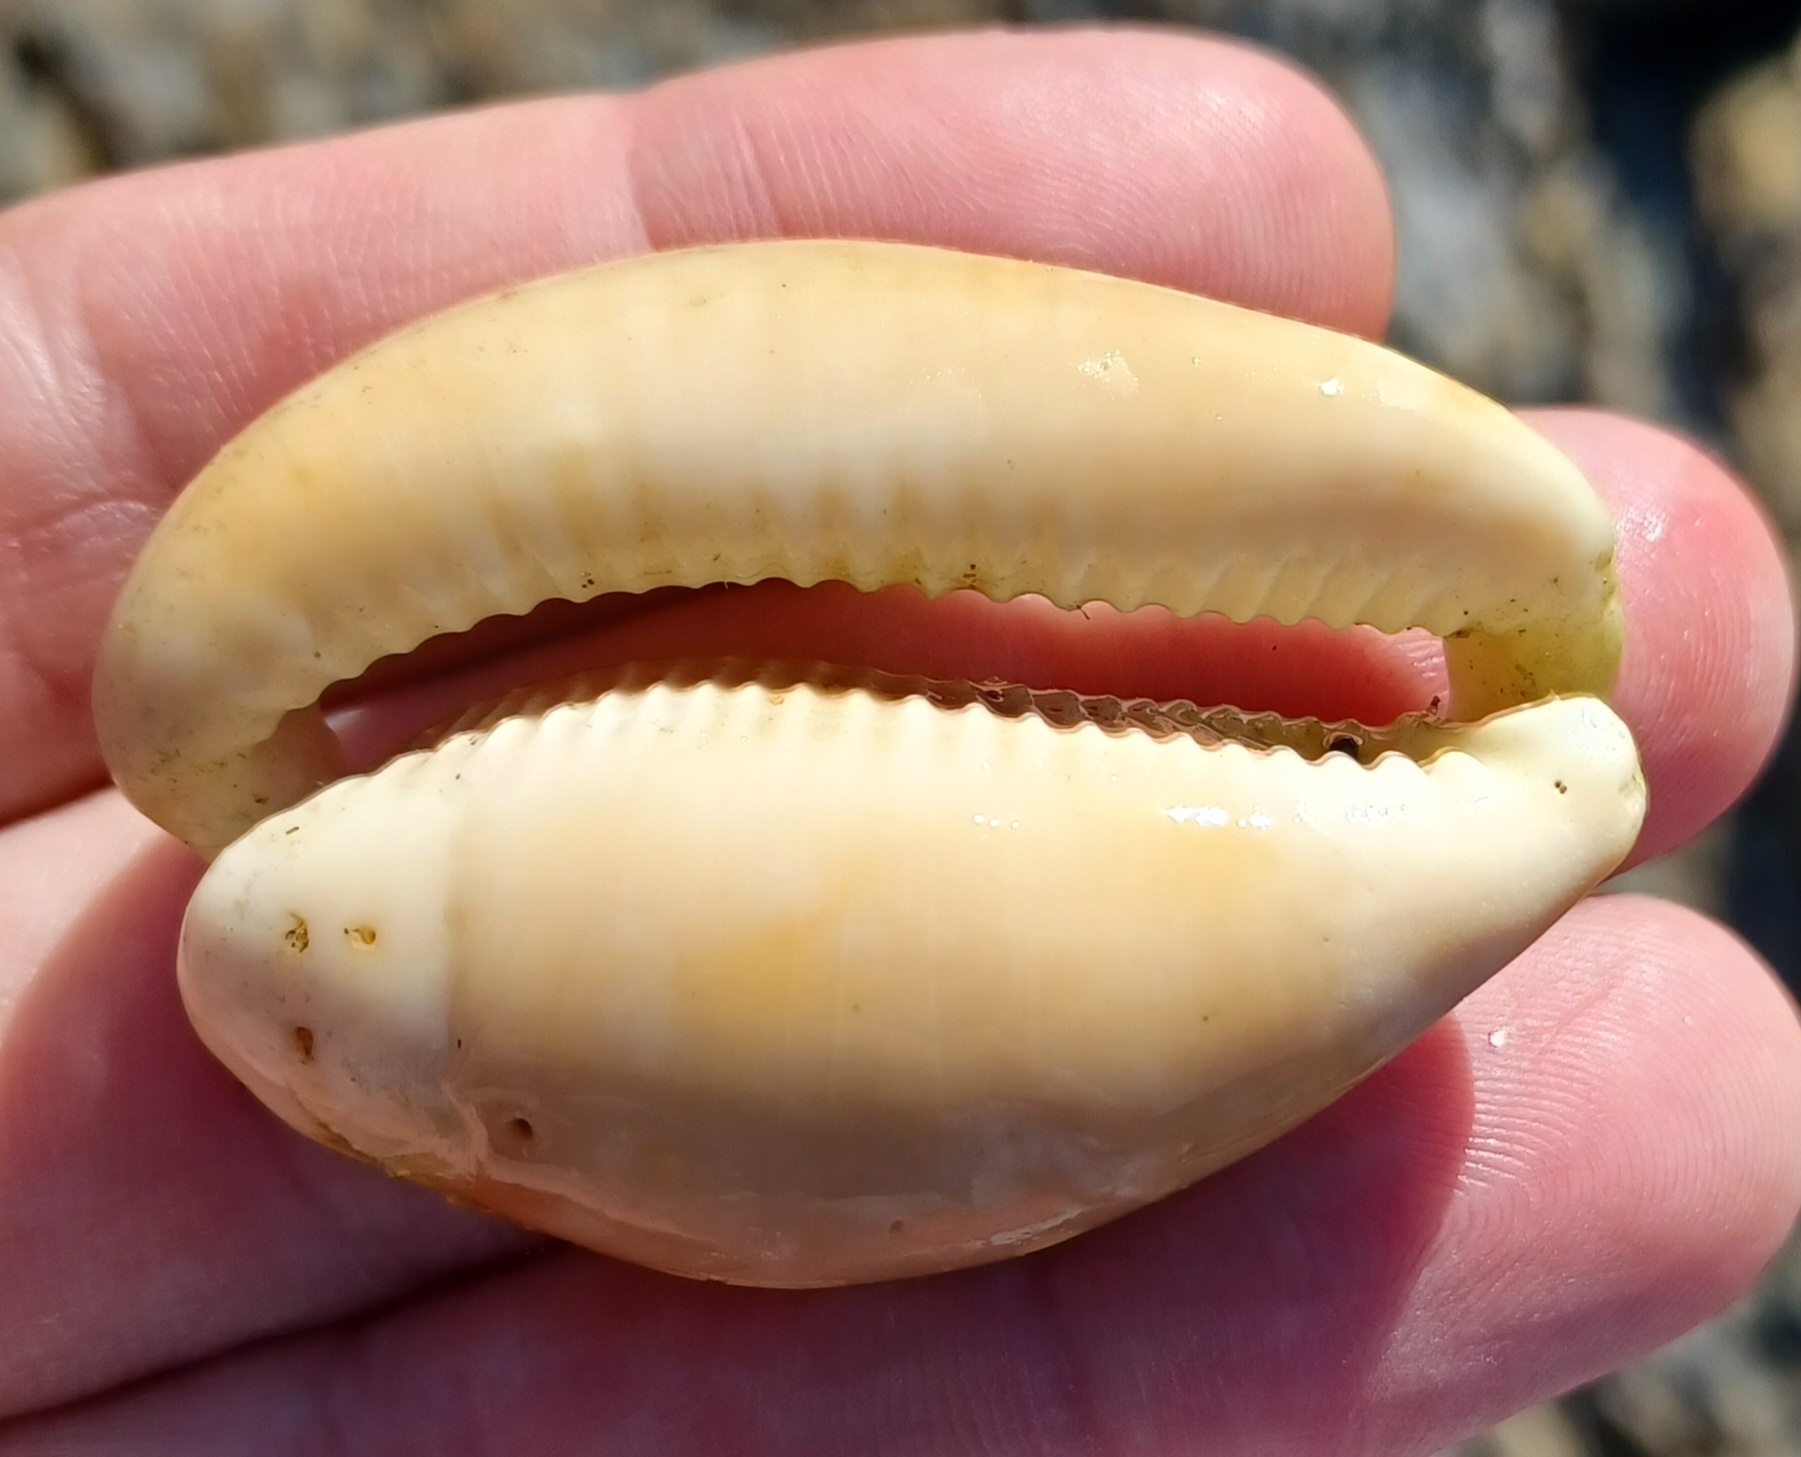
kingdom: Animalia
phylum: Mollusca
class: Gastropoda
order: Littorinimorpha
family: Cypraeidae
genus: Lyncina
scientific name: Lyncina vitellus
